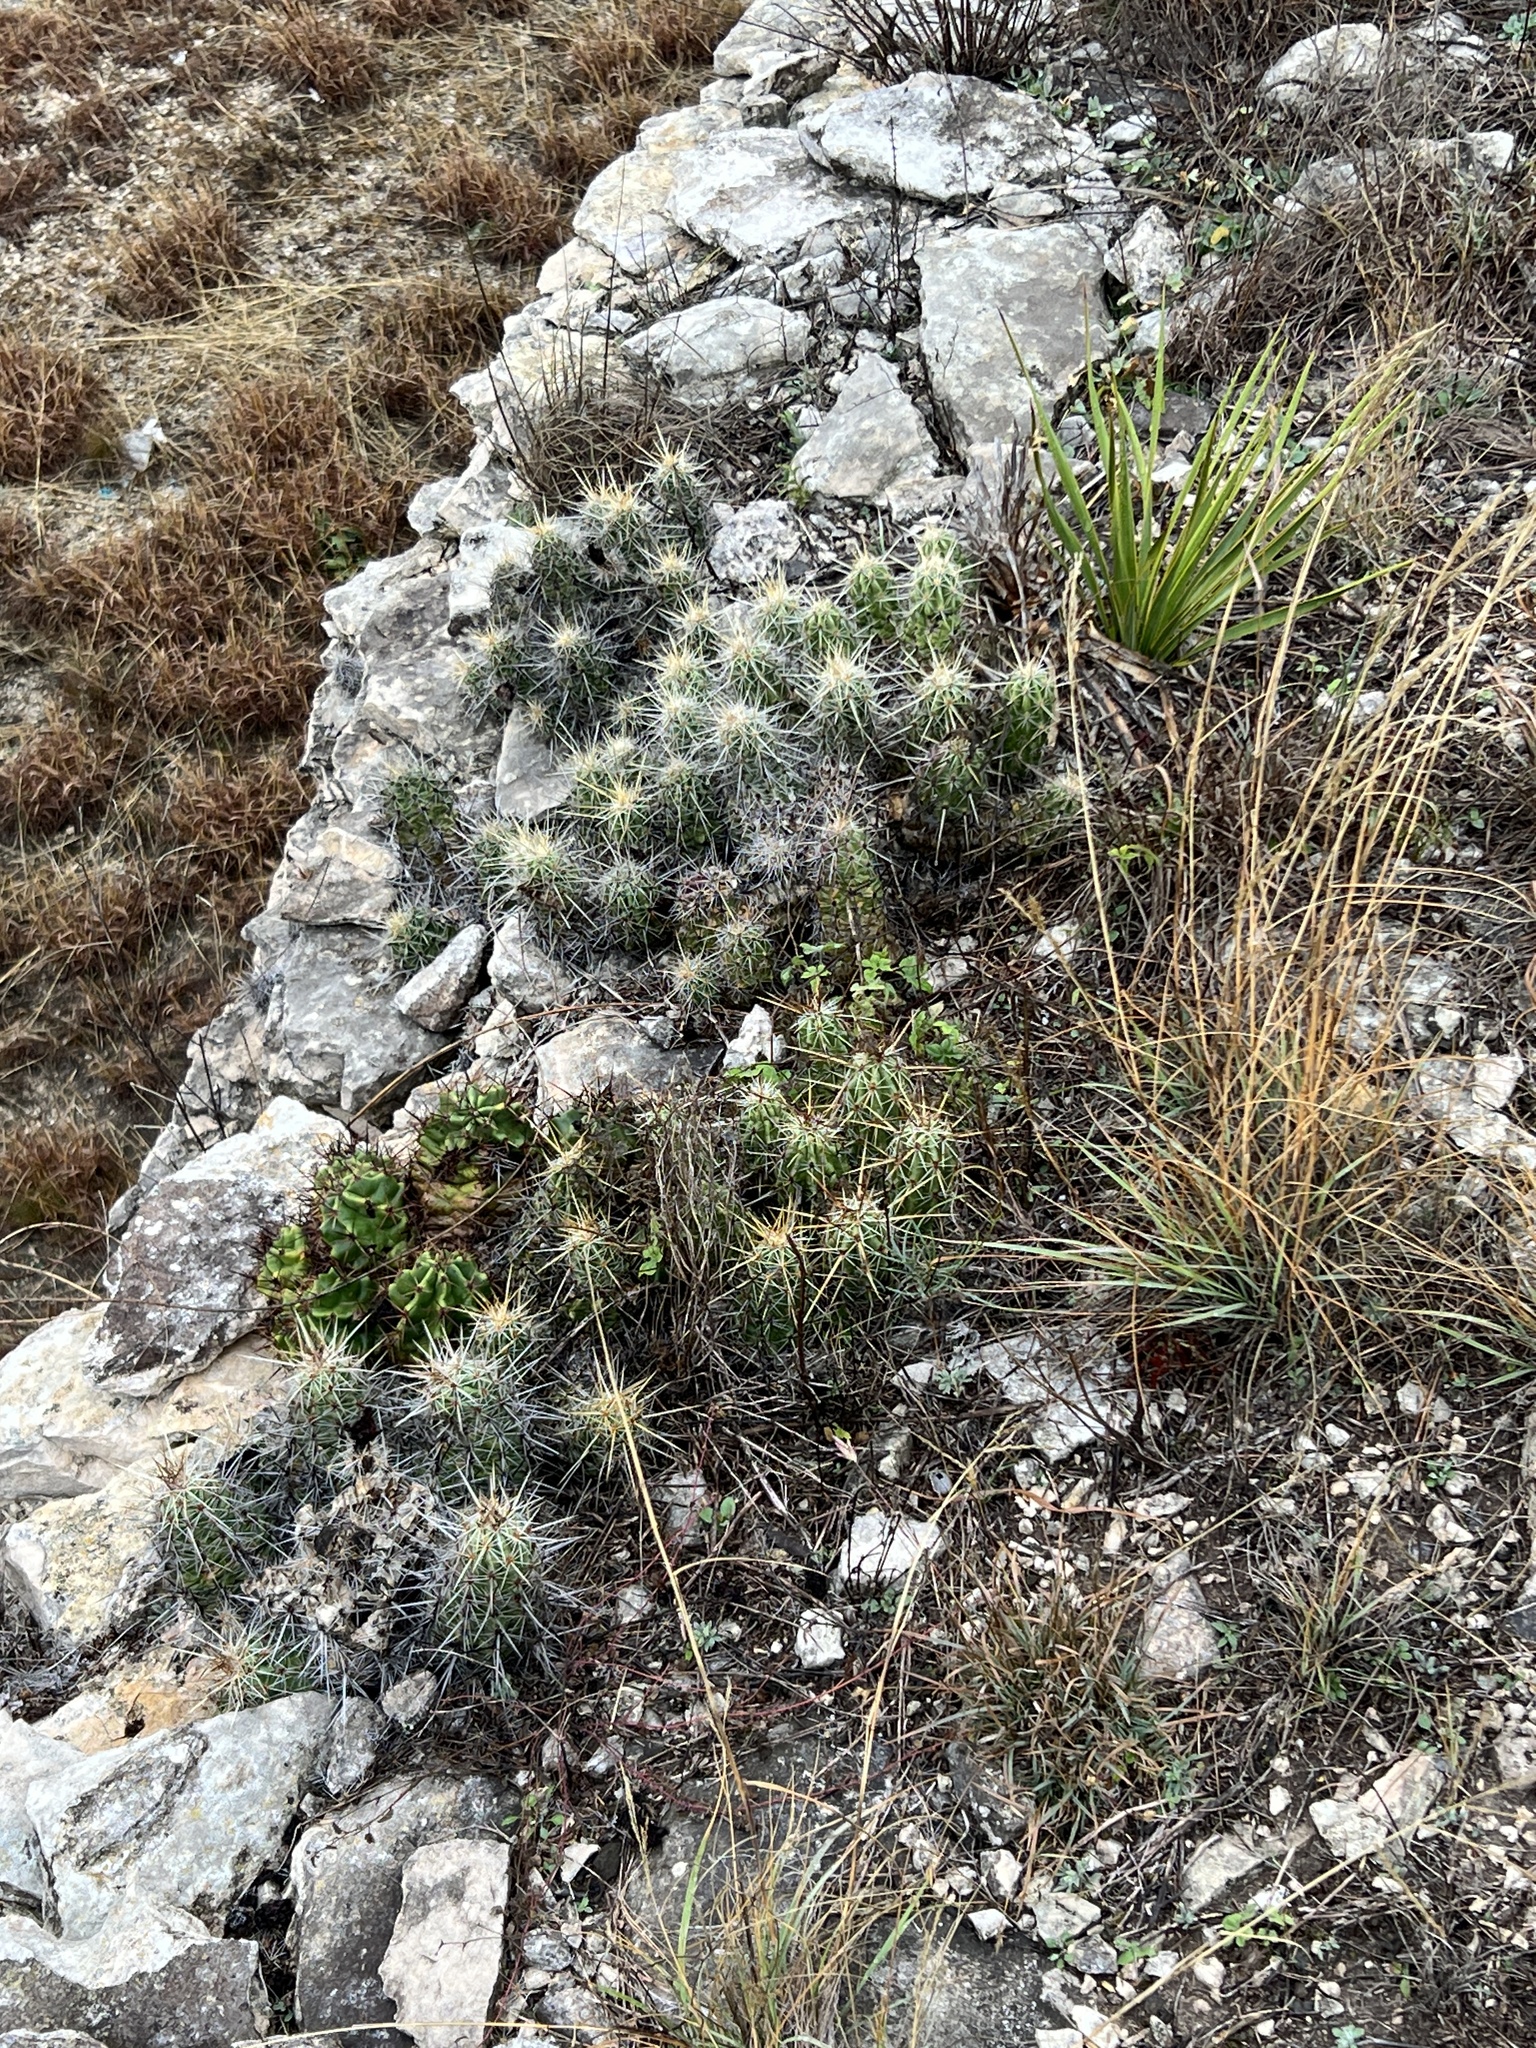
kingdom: Plantae
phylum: Tracheophyta
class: Magnoliopsida
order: Caryophyllales
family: Cactaceae
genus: Mammillaria
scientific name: Mammillaria heyderi
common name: Little nipple cactus
